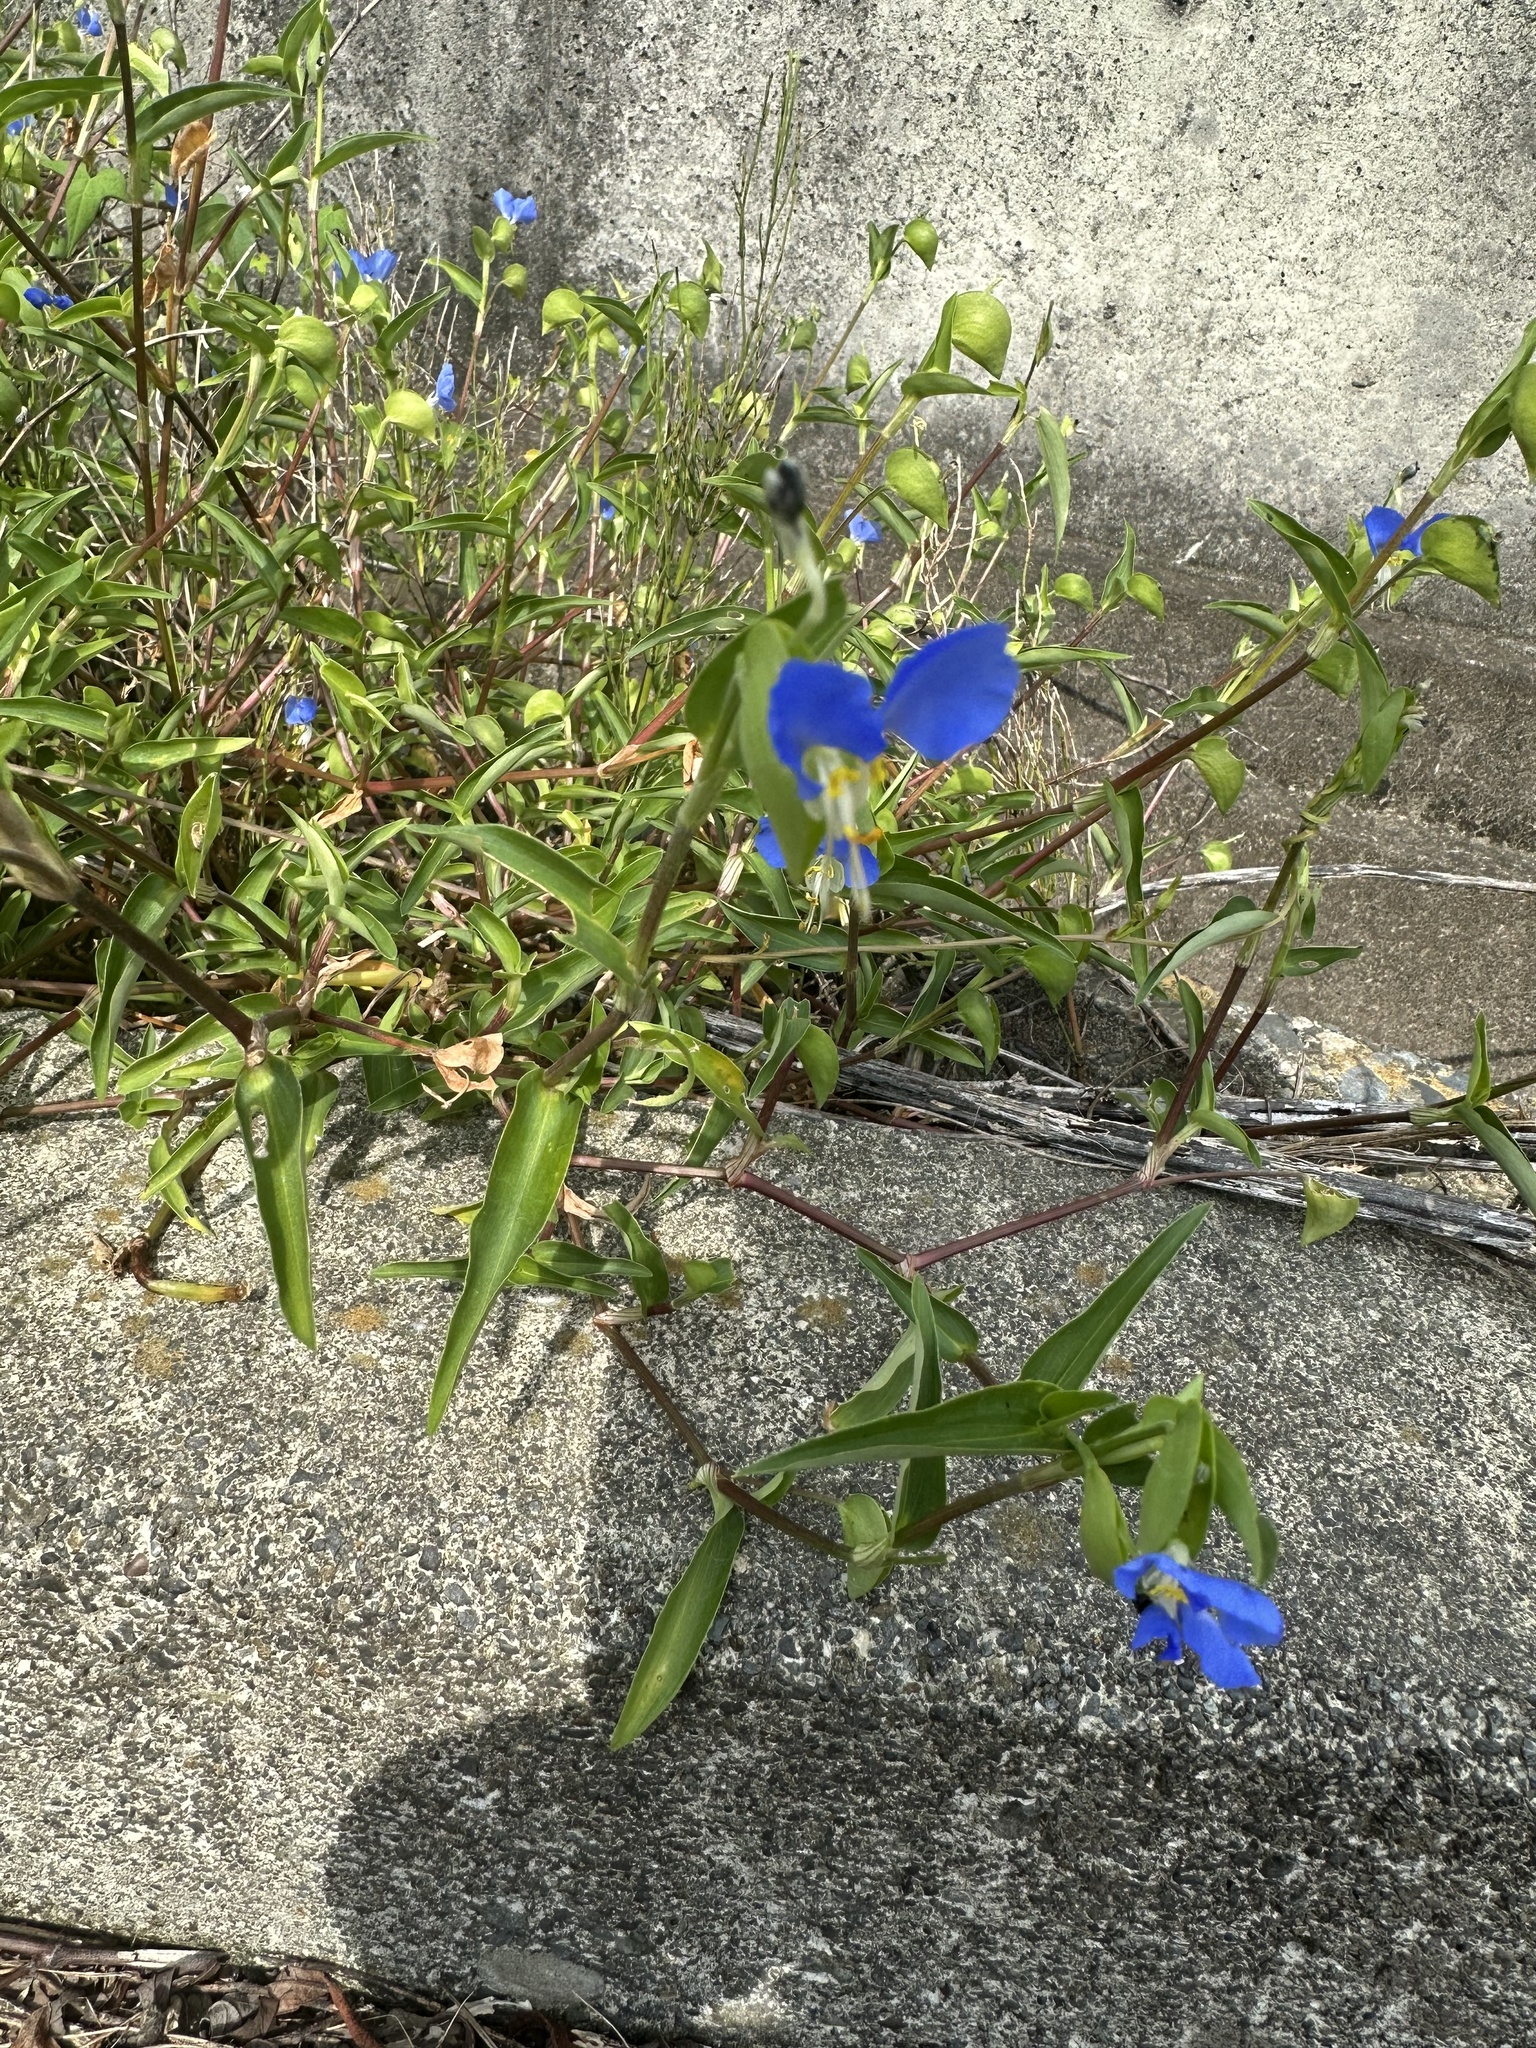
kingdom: Plantae
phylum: Tracheophyta
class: Liliopsida
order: Commelinales
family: Commelinaceae
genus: Commelina
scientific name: Commelina communis
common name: Asiatic dayflower
